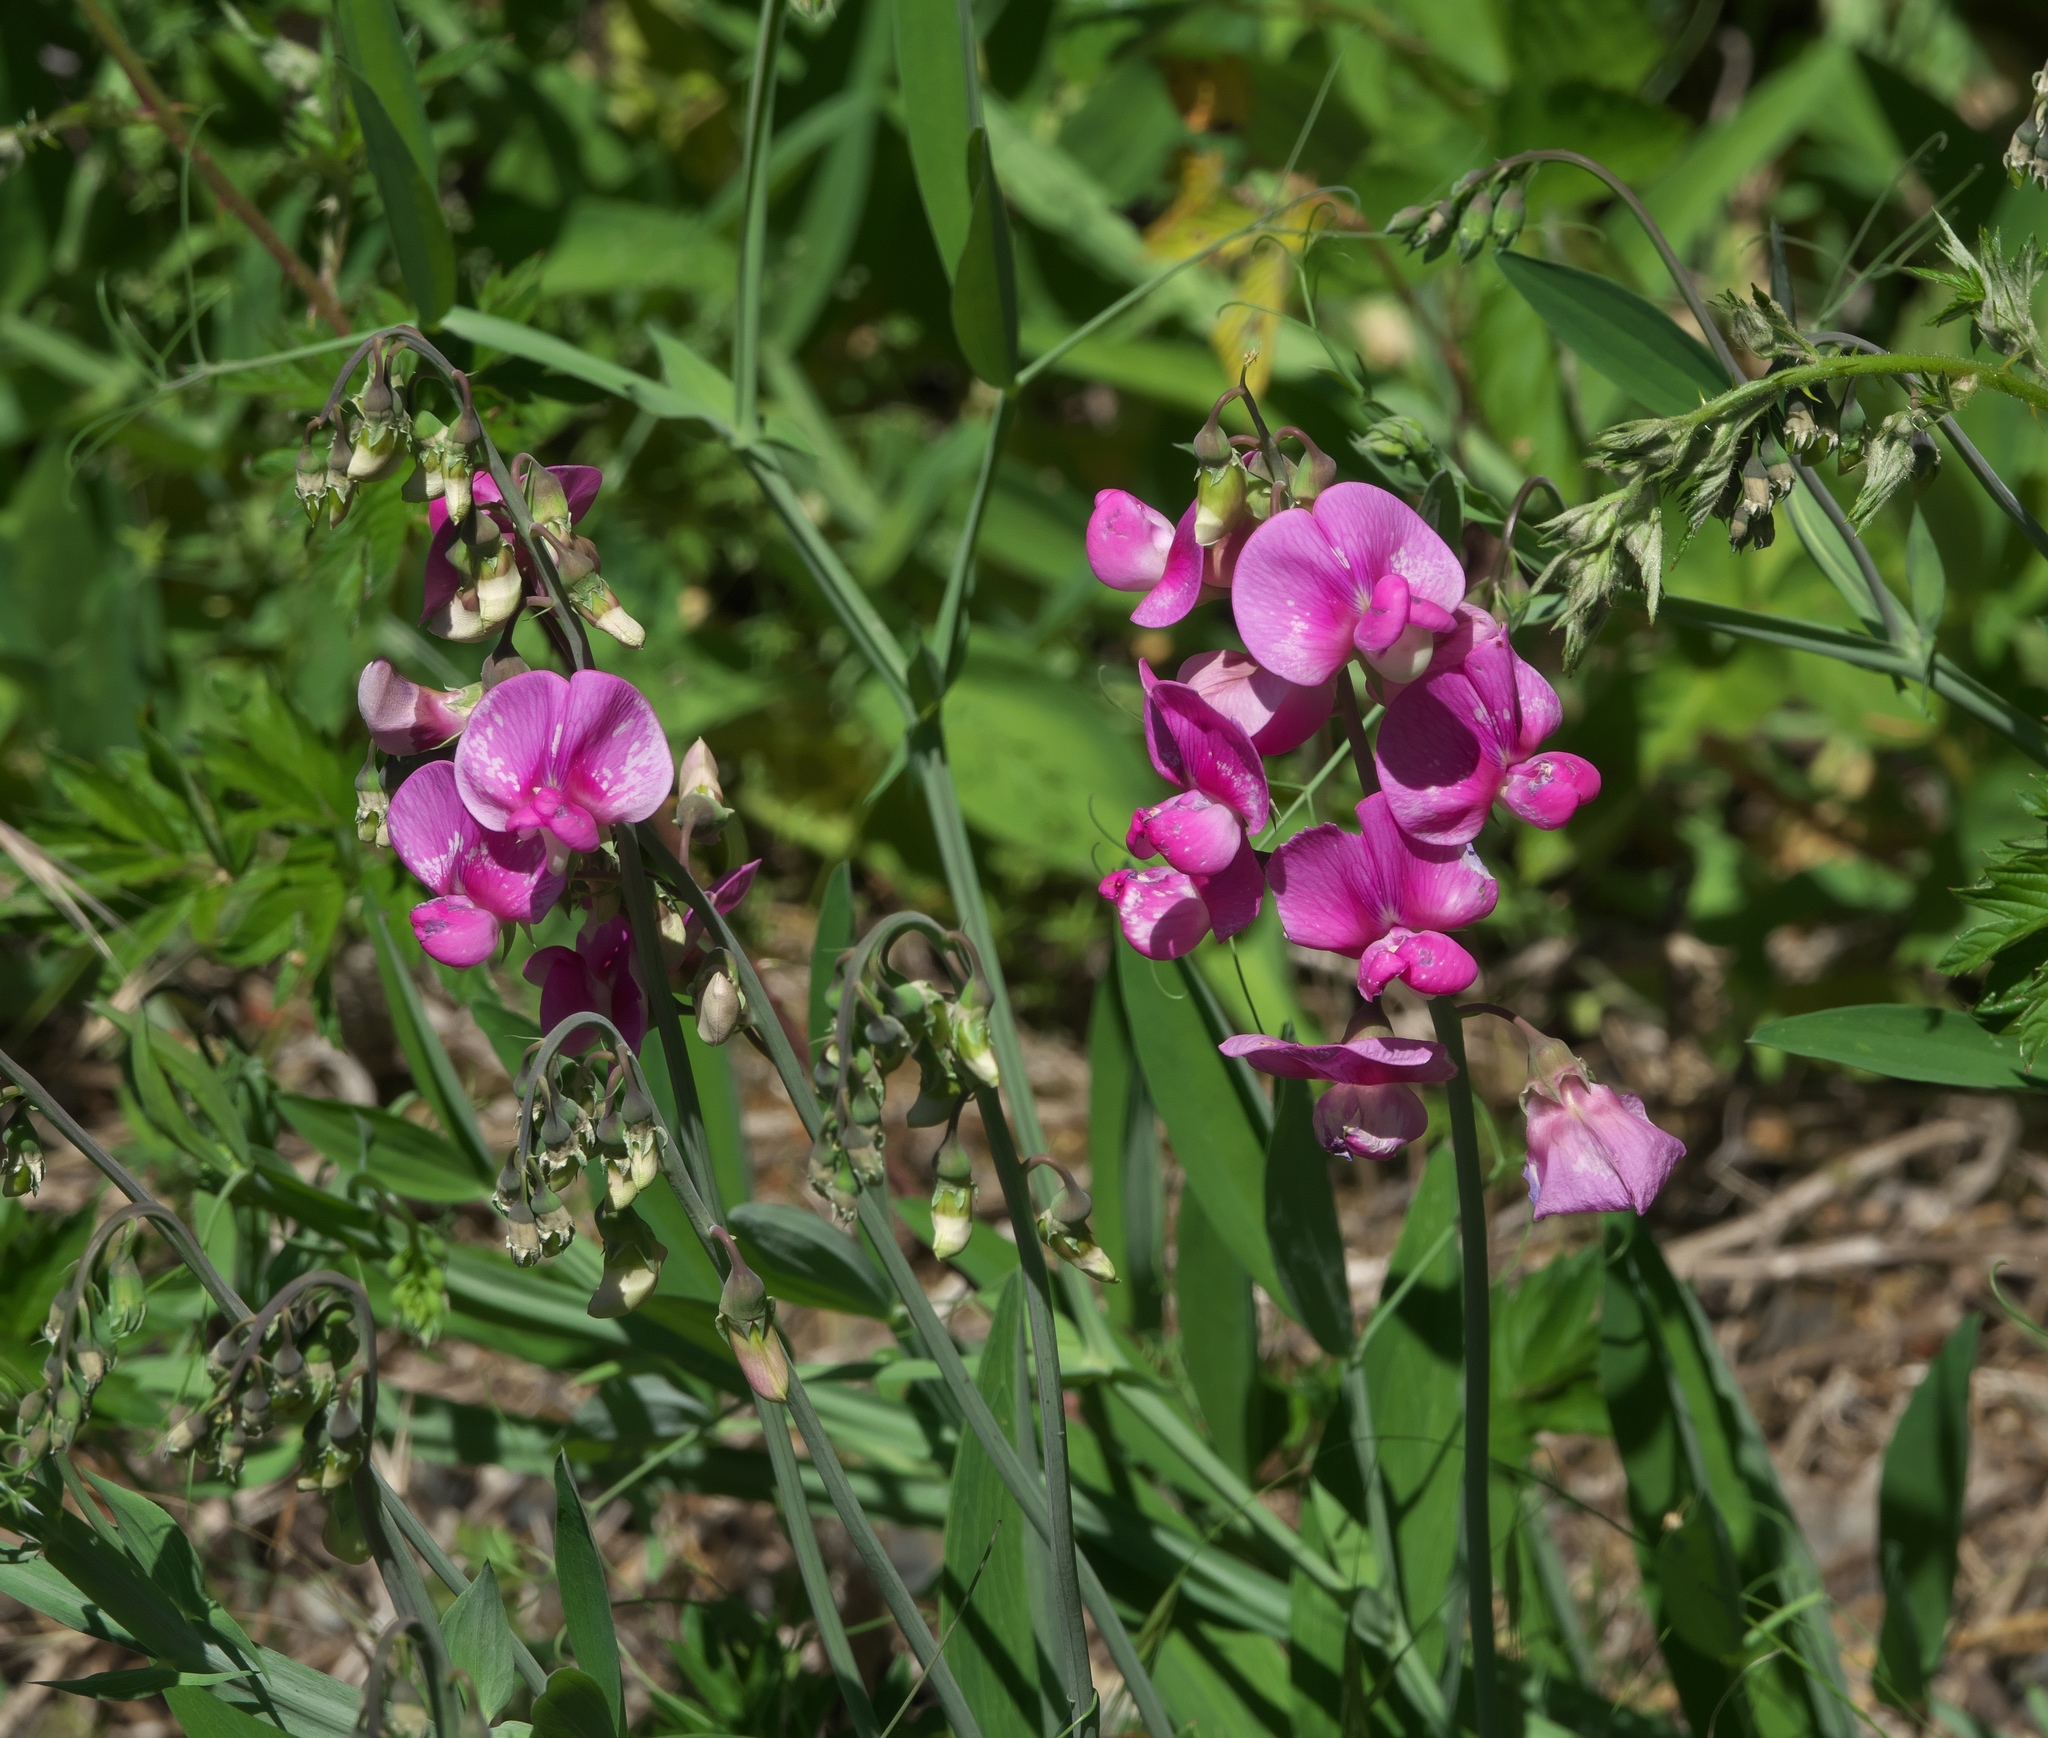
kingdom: Plantae
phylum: Tracheophyta
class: Magnoliopsida
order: Fabales
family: Fabaceae
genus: Lathyrus
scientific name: Lathyrus latifolius
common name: Perennial pea
